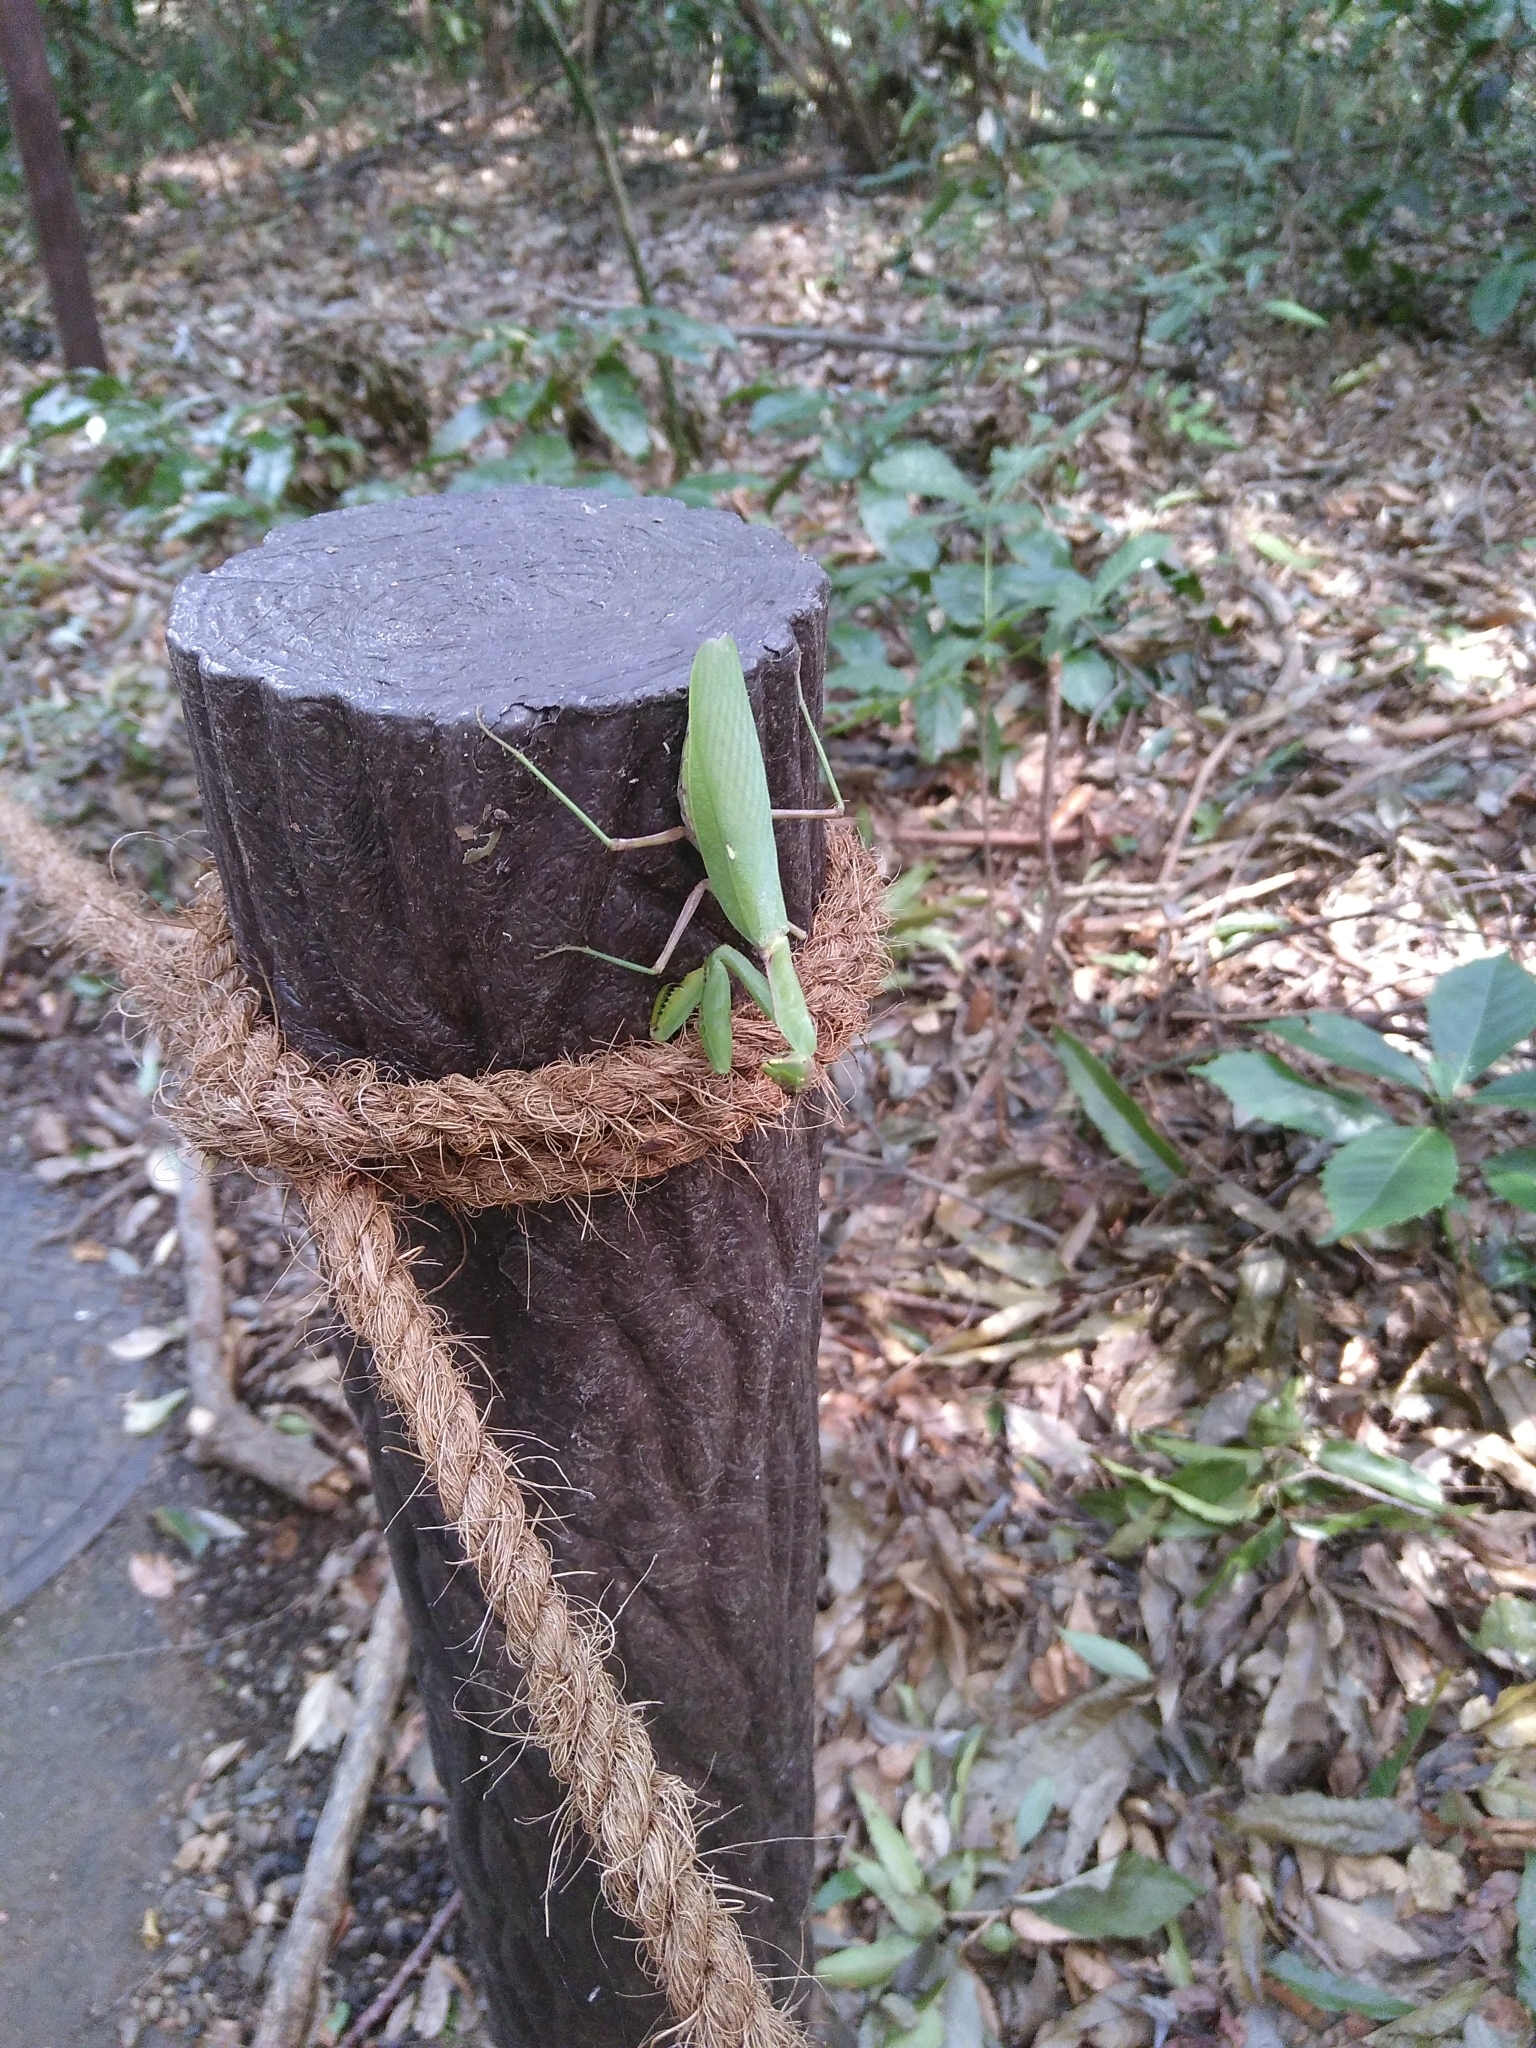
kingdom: Animalia
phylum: Arthropoda
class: Insecta
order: Mantodea
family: Mantidae
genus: Hierodula
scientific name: Hierodula patellifera
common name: Asian mantis
